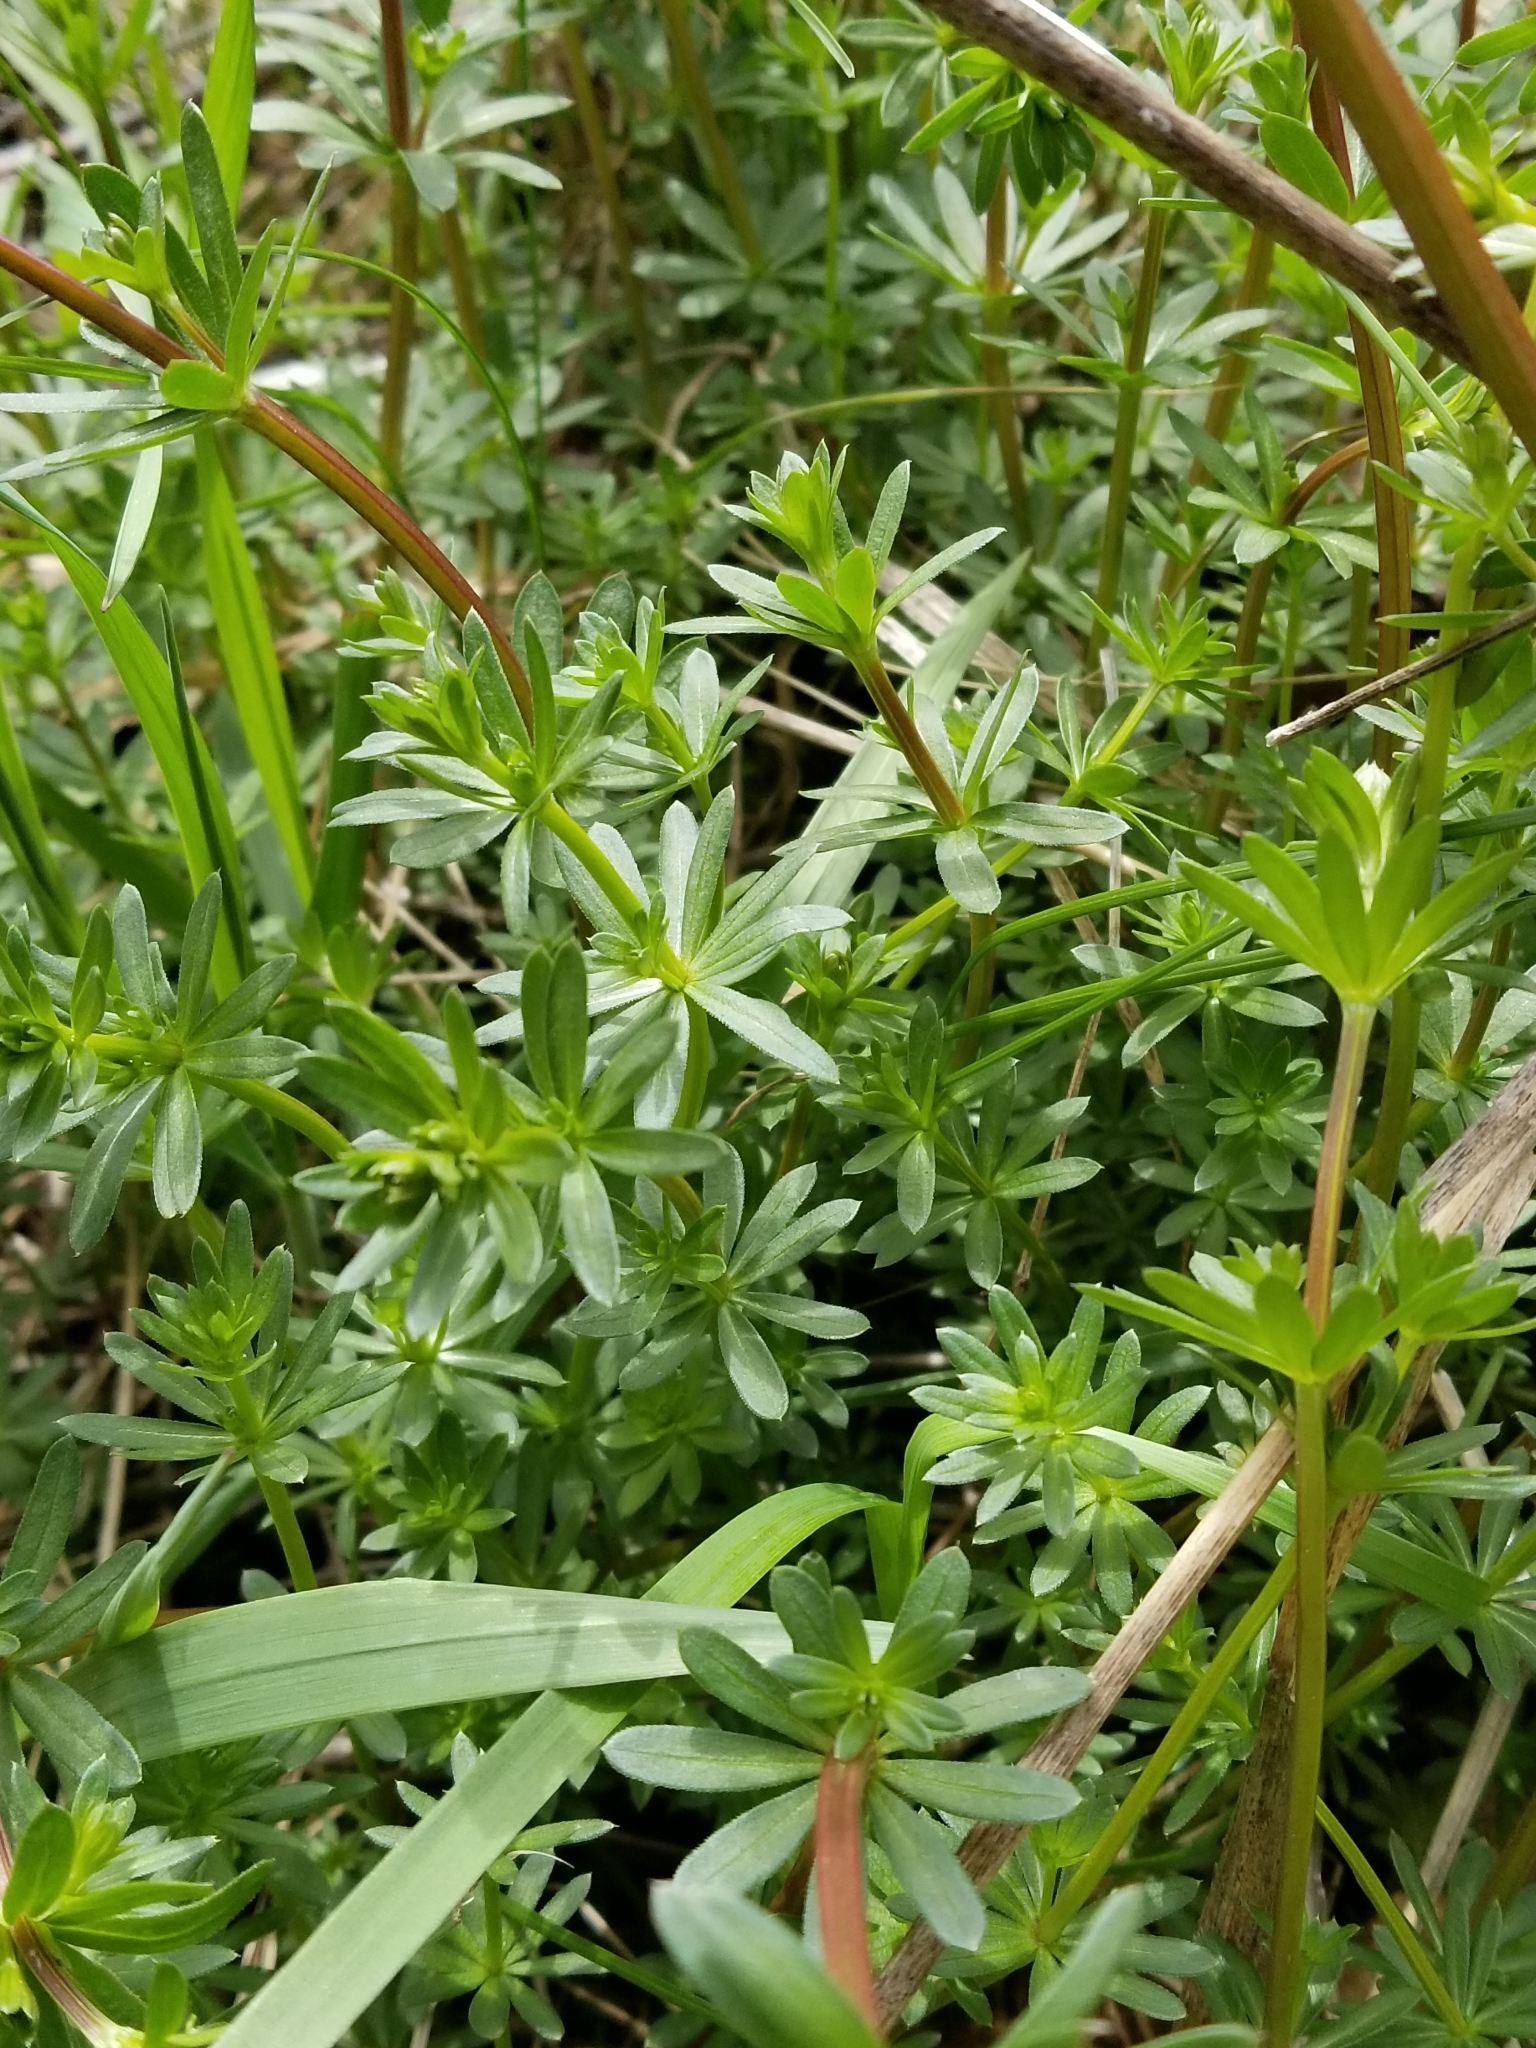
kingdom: Plantae
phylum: Tracheophyta
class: Magnoliopsida
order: Gentianales
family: Rubiaceae
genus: Galium
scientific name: Galium mollugo
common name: Hedge bedstraw
